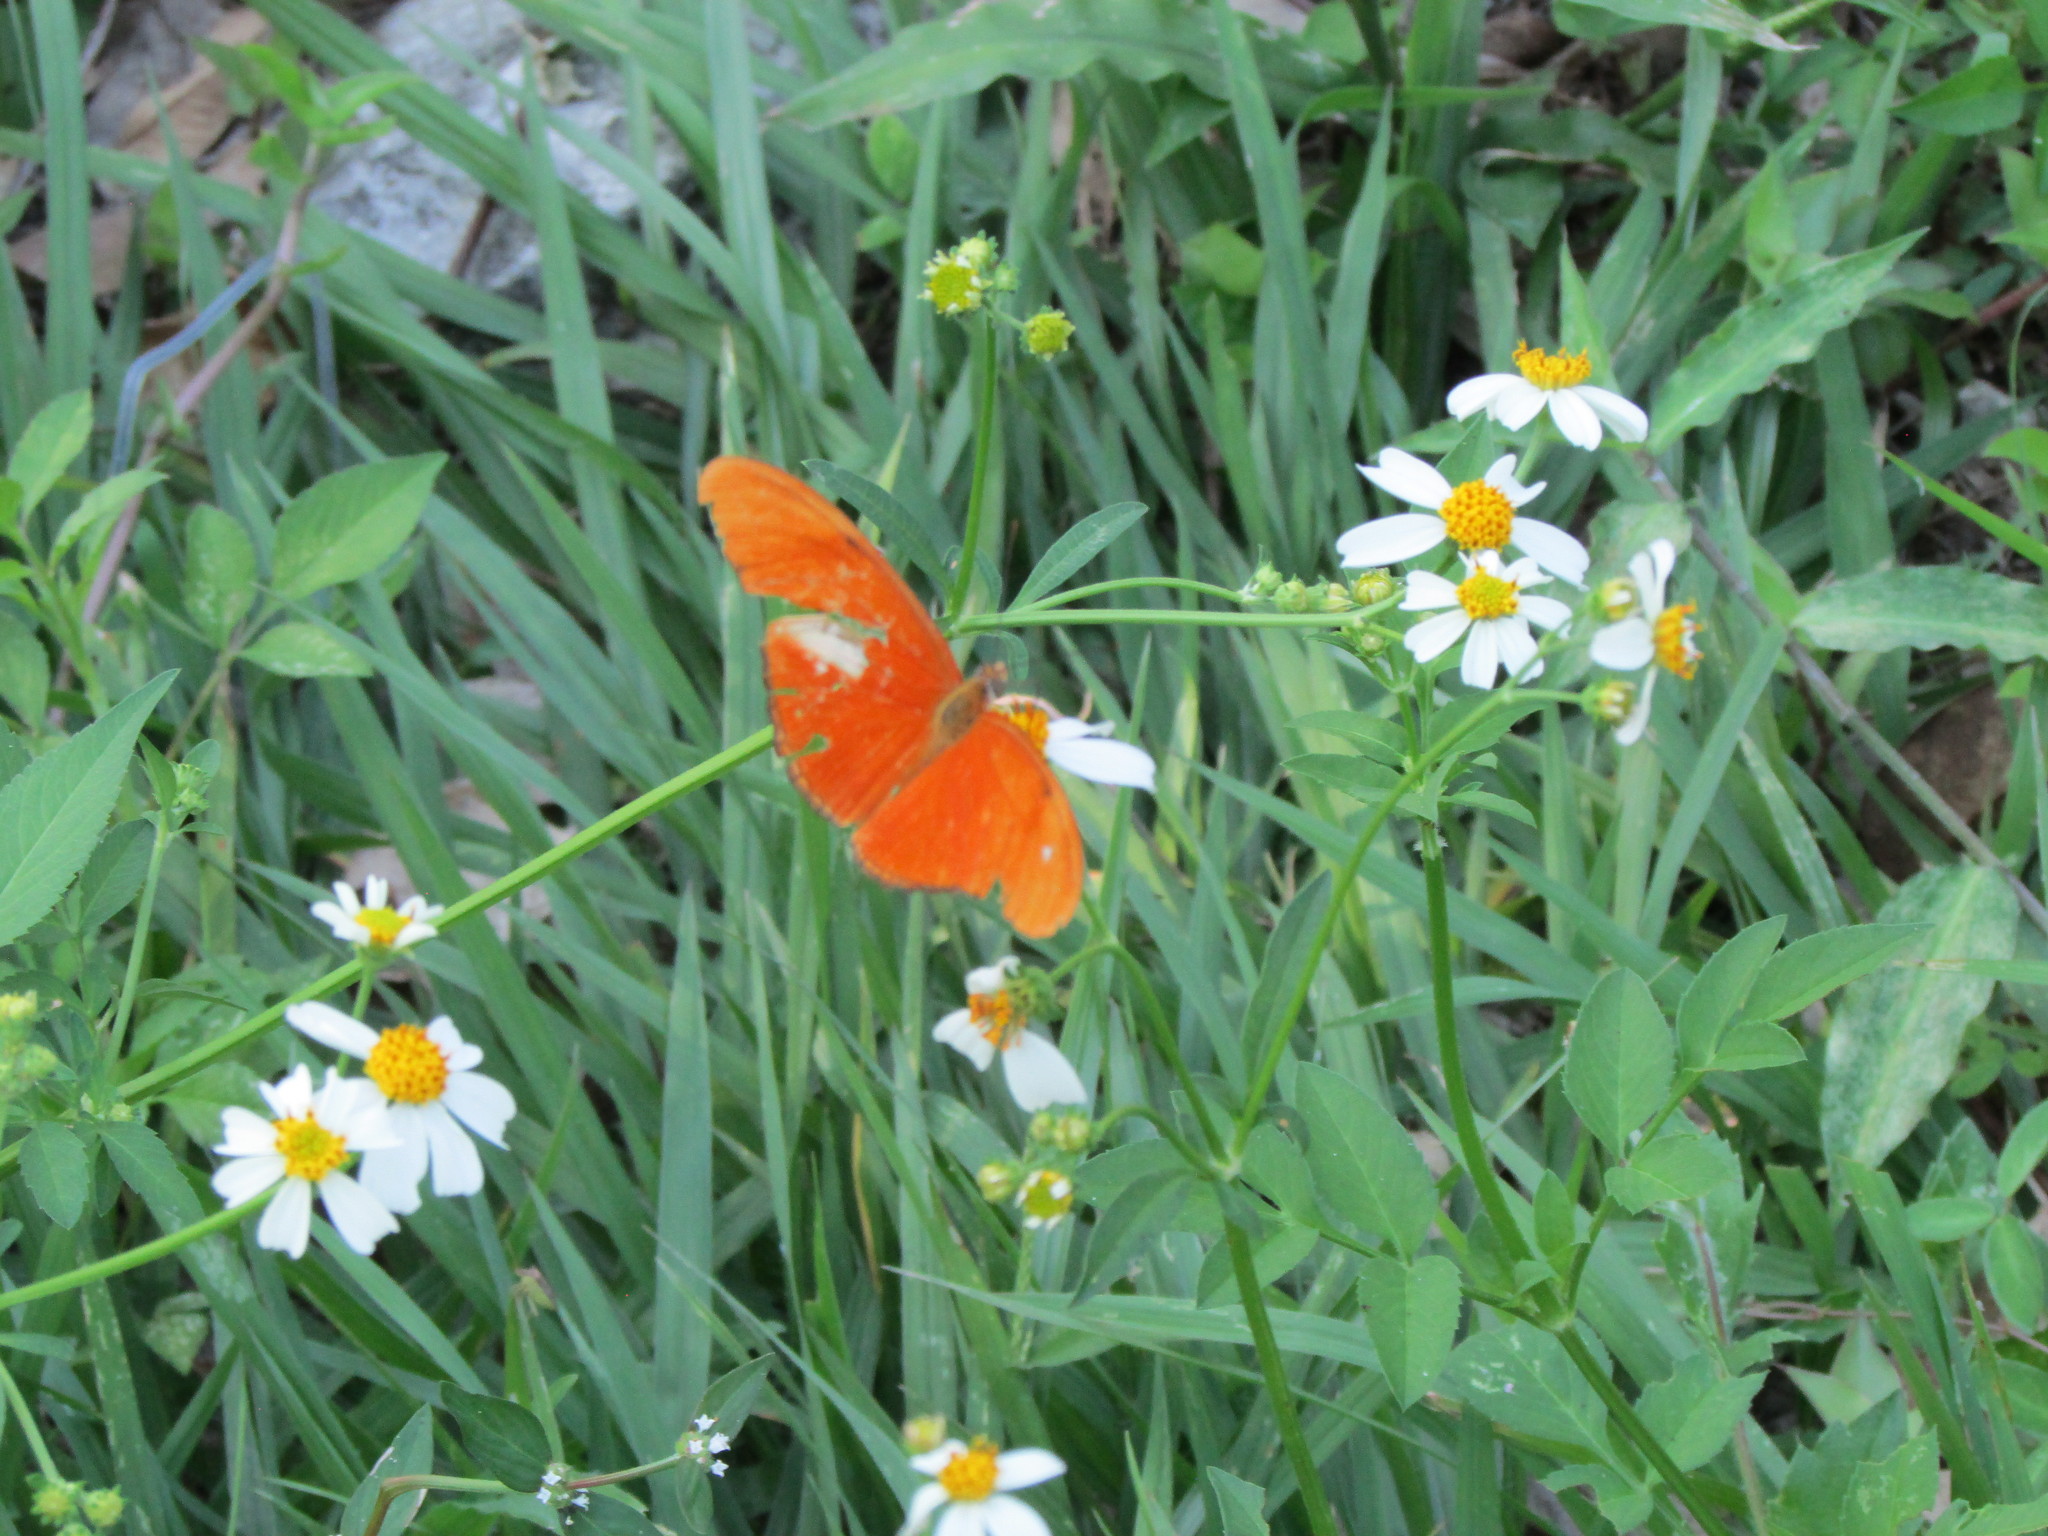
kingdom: Animalia
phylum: Arthropoda
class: Insecta
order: Lepidoptera
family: Nymphalidae
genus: Dryas
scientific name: Dryas iulia
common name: Flambeau
